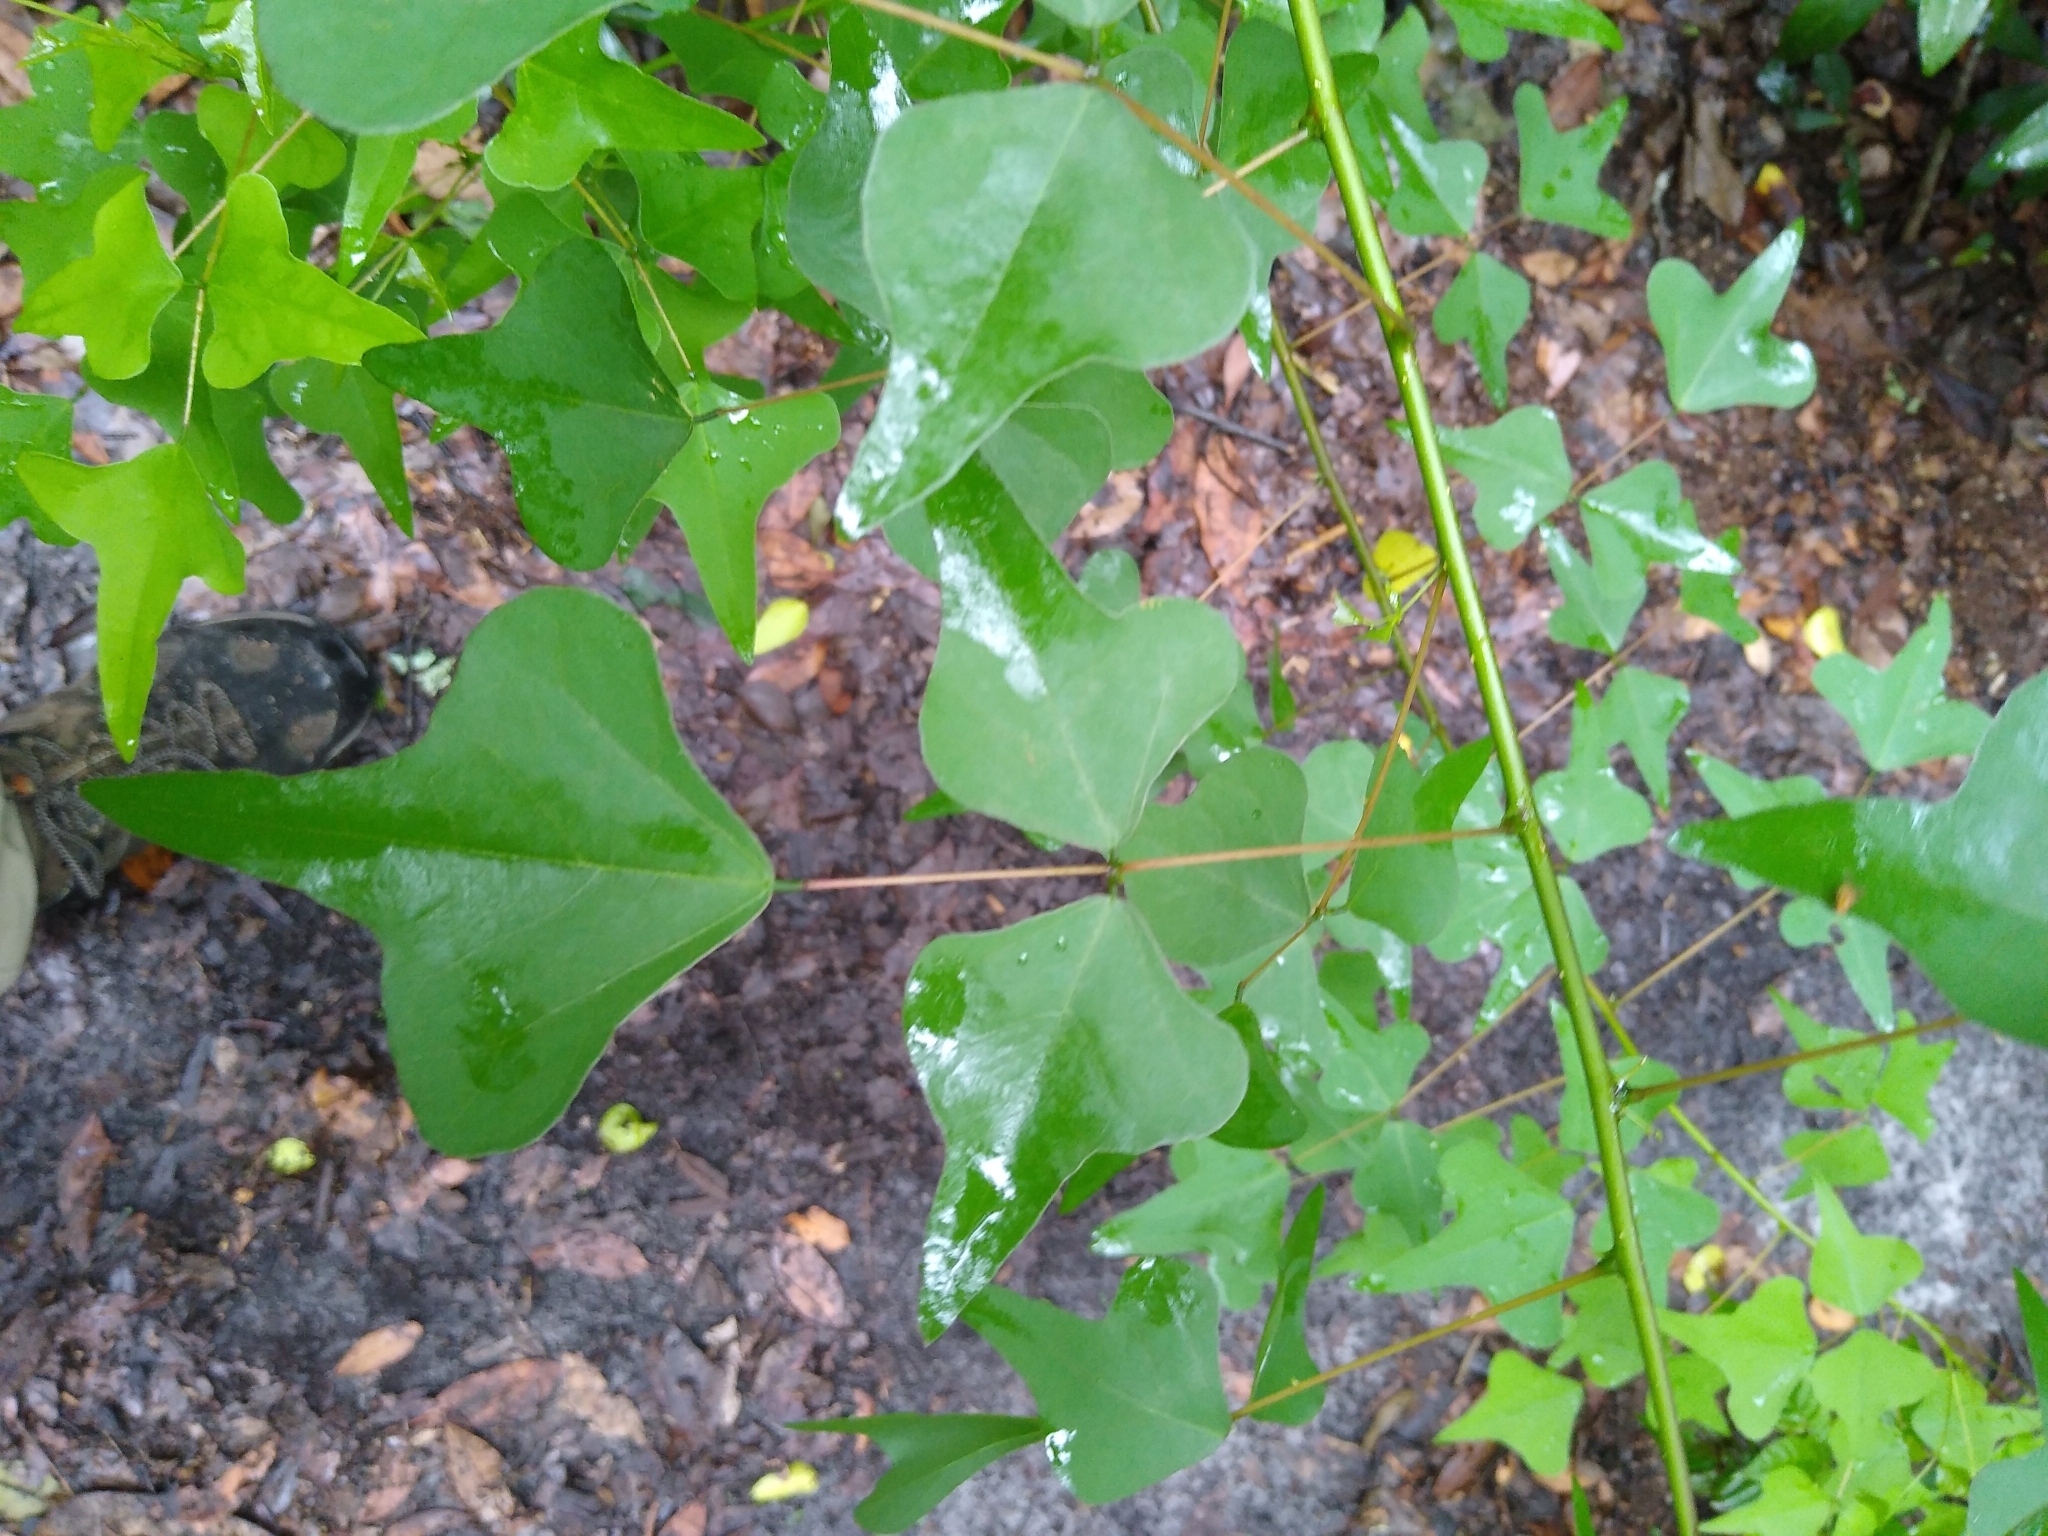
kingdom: Plantae
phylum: Tracheophyta
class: Magnoliopsida
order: Fabales
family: Fabaceae
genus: Erythrina
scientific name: Erythrina herbacea
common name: Coral-bean
